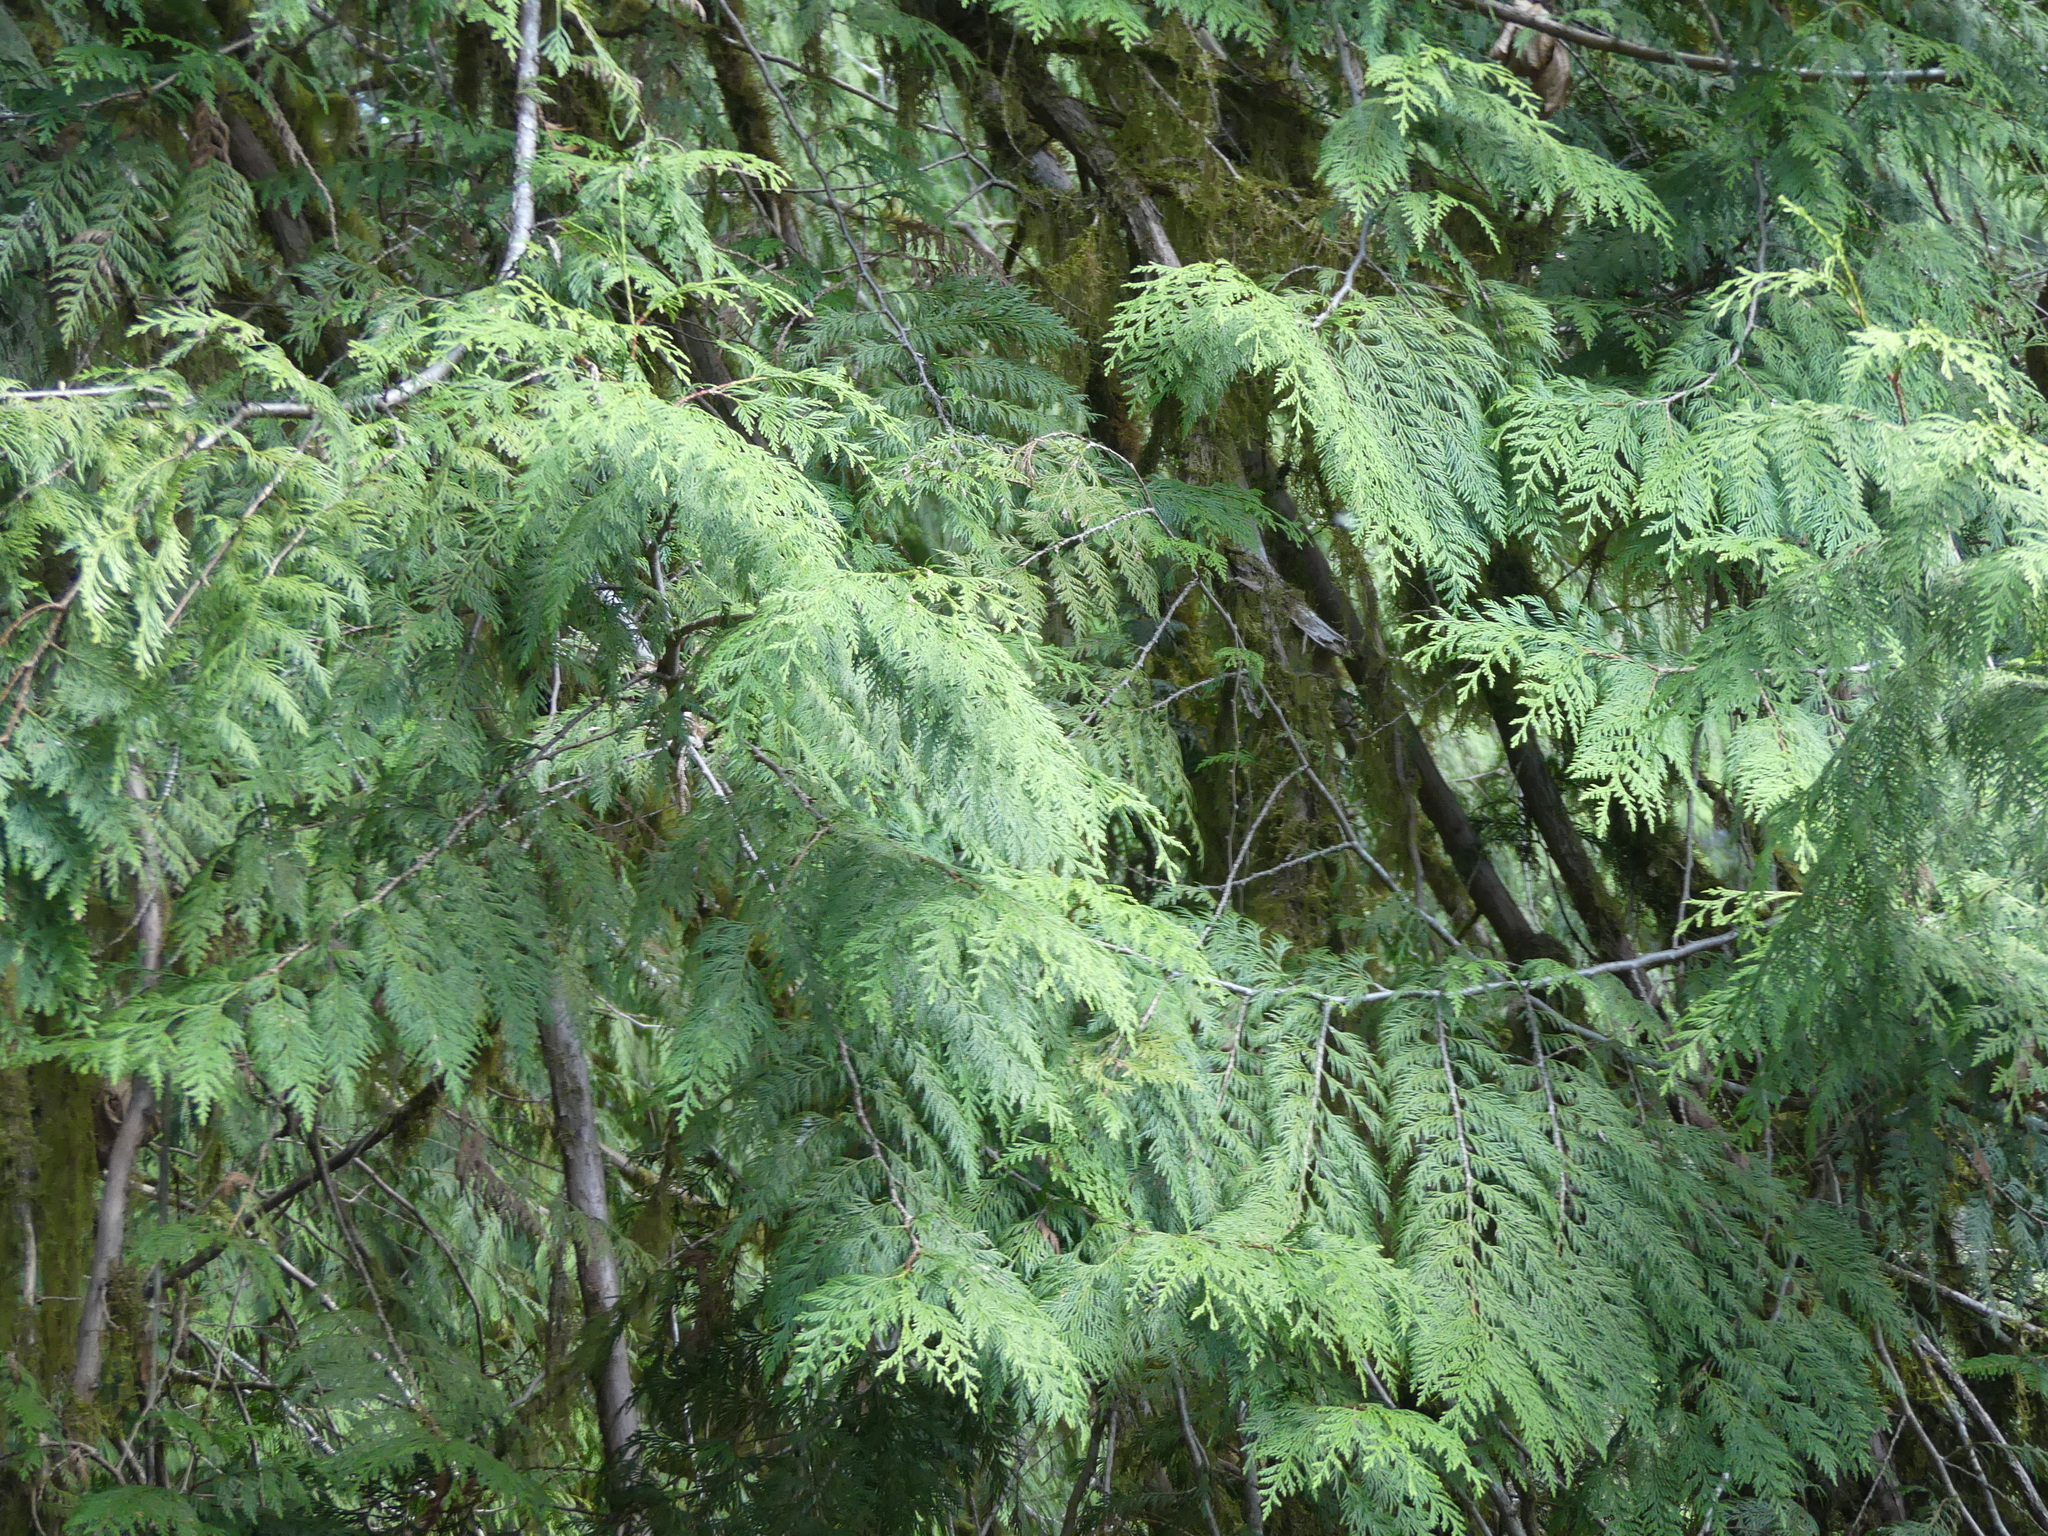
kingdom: Plantae
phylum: Tracheophyta
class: Pinopsida
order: Pinales
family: Cupressaceae
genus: Thuja
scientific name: Thuja plicata
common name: Western red-cedar
